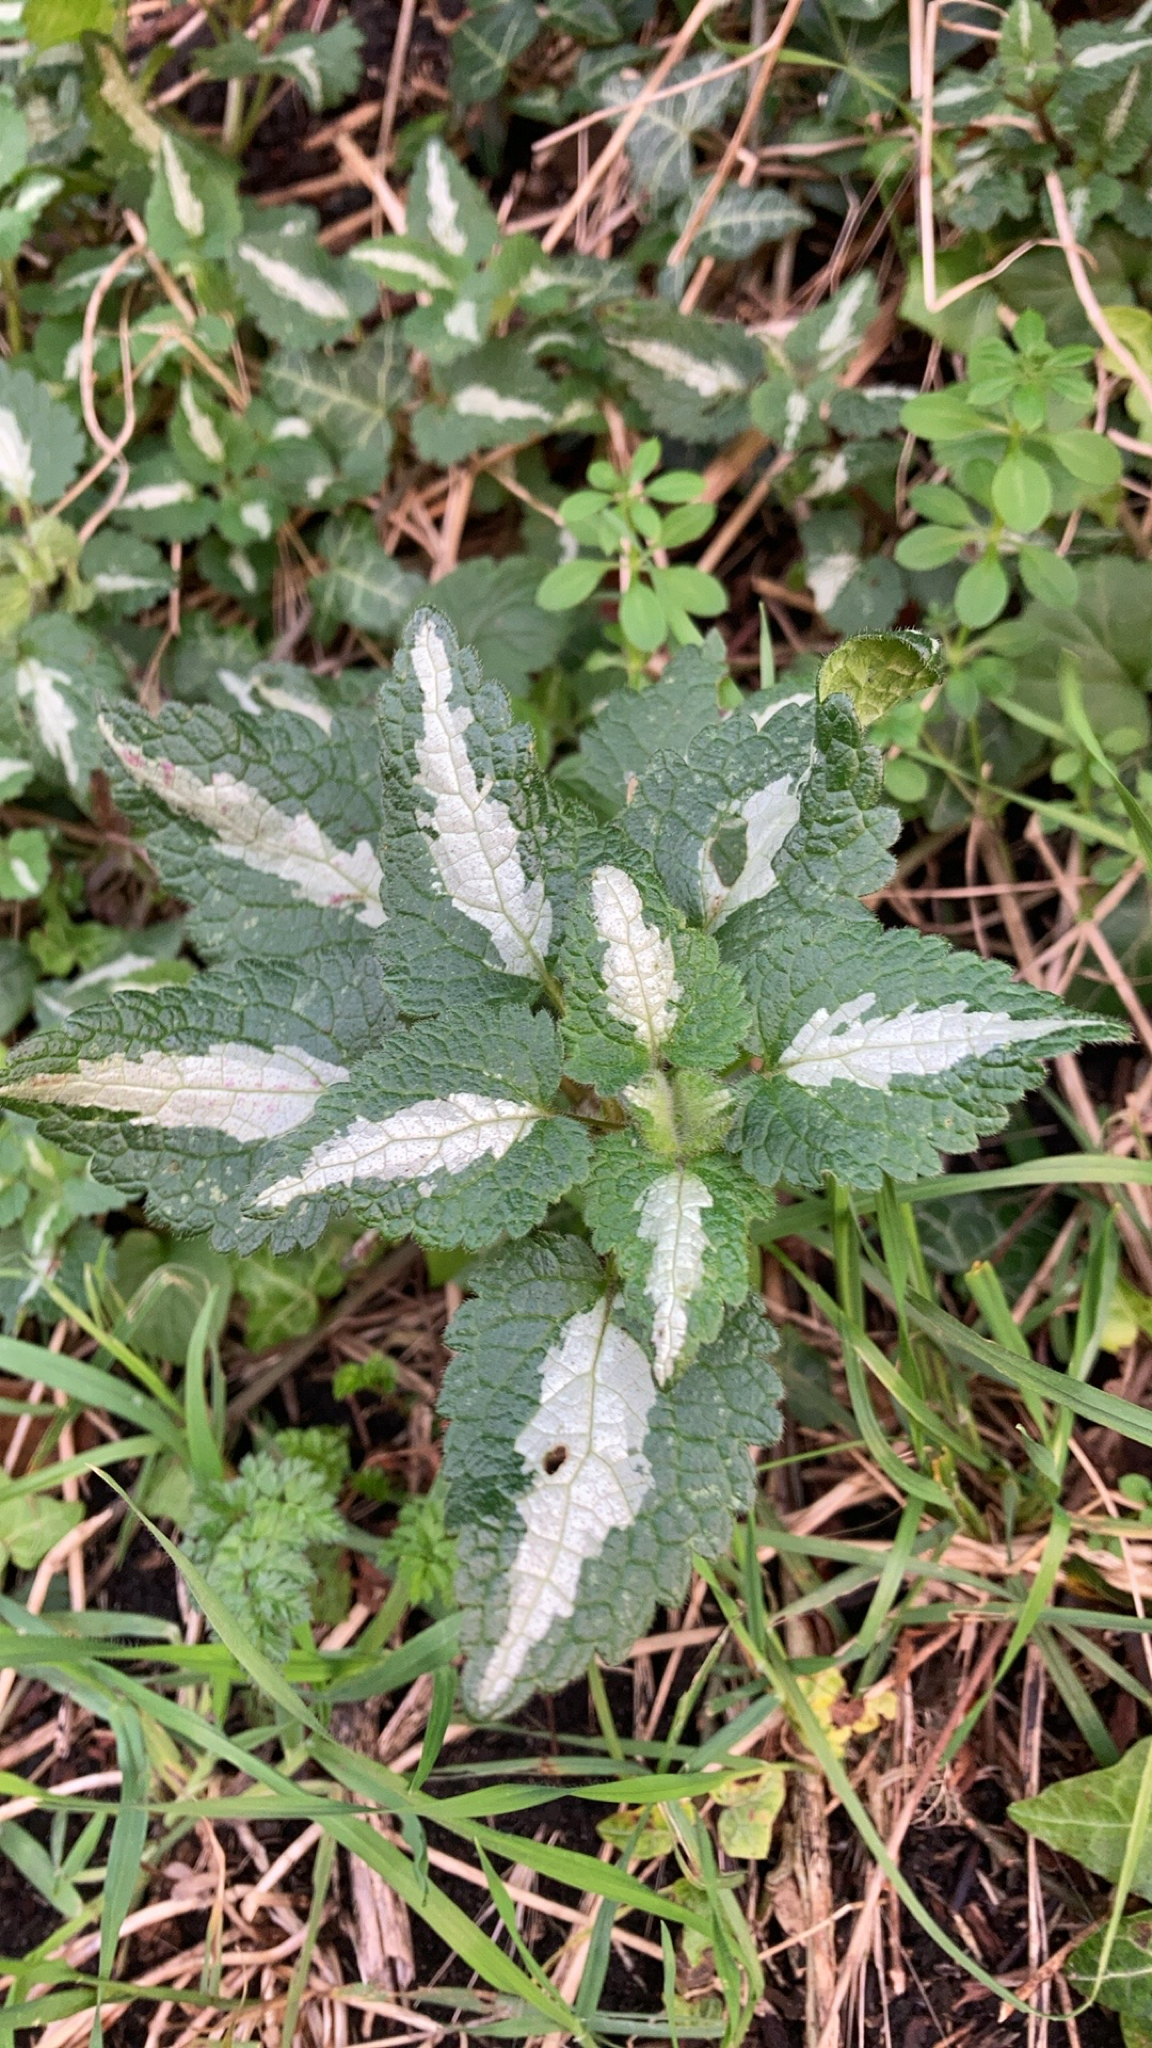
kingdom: Plantae
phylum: Tracheophyta
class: Magnoliopsida
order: Lamiales
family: Lamiaceae
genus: Lamium
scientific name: Lamium maculatum
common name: Spotted dead-nettle
